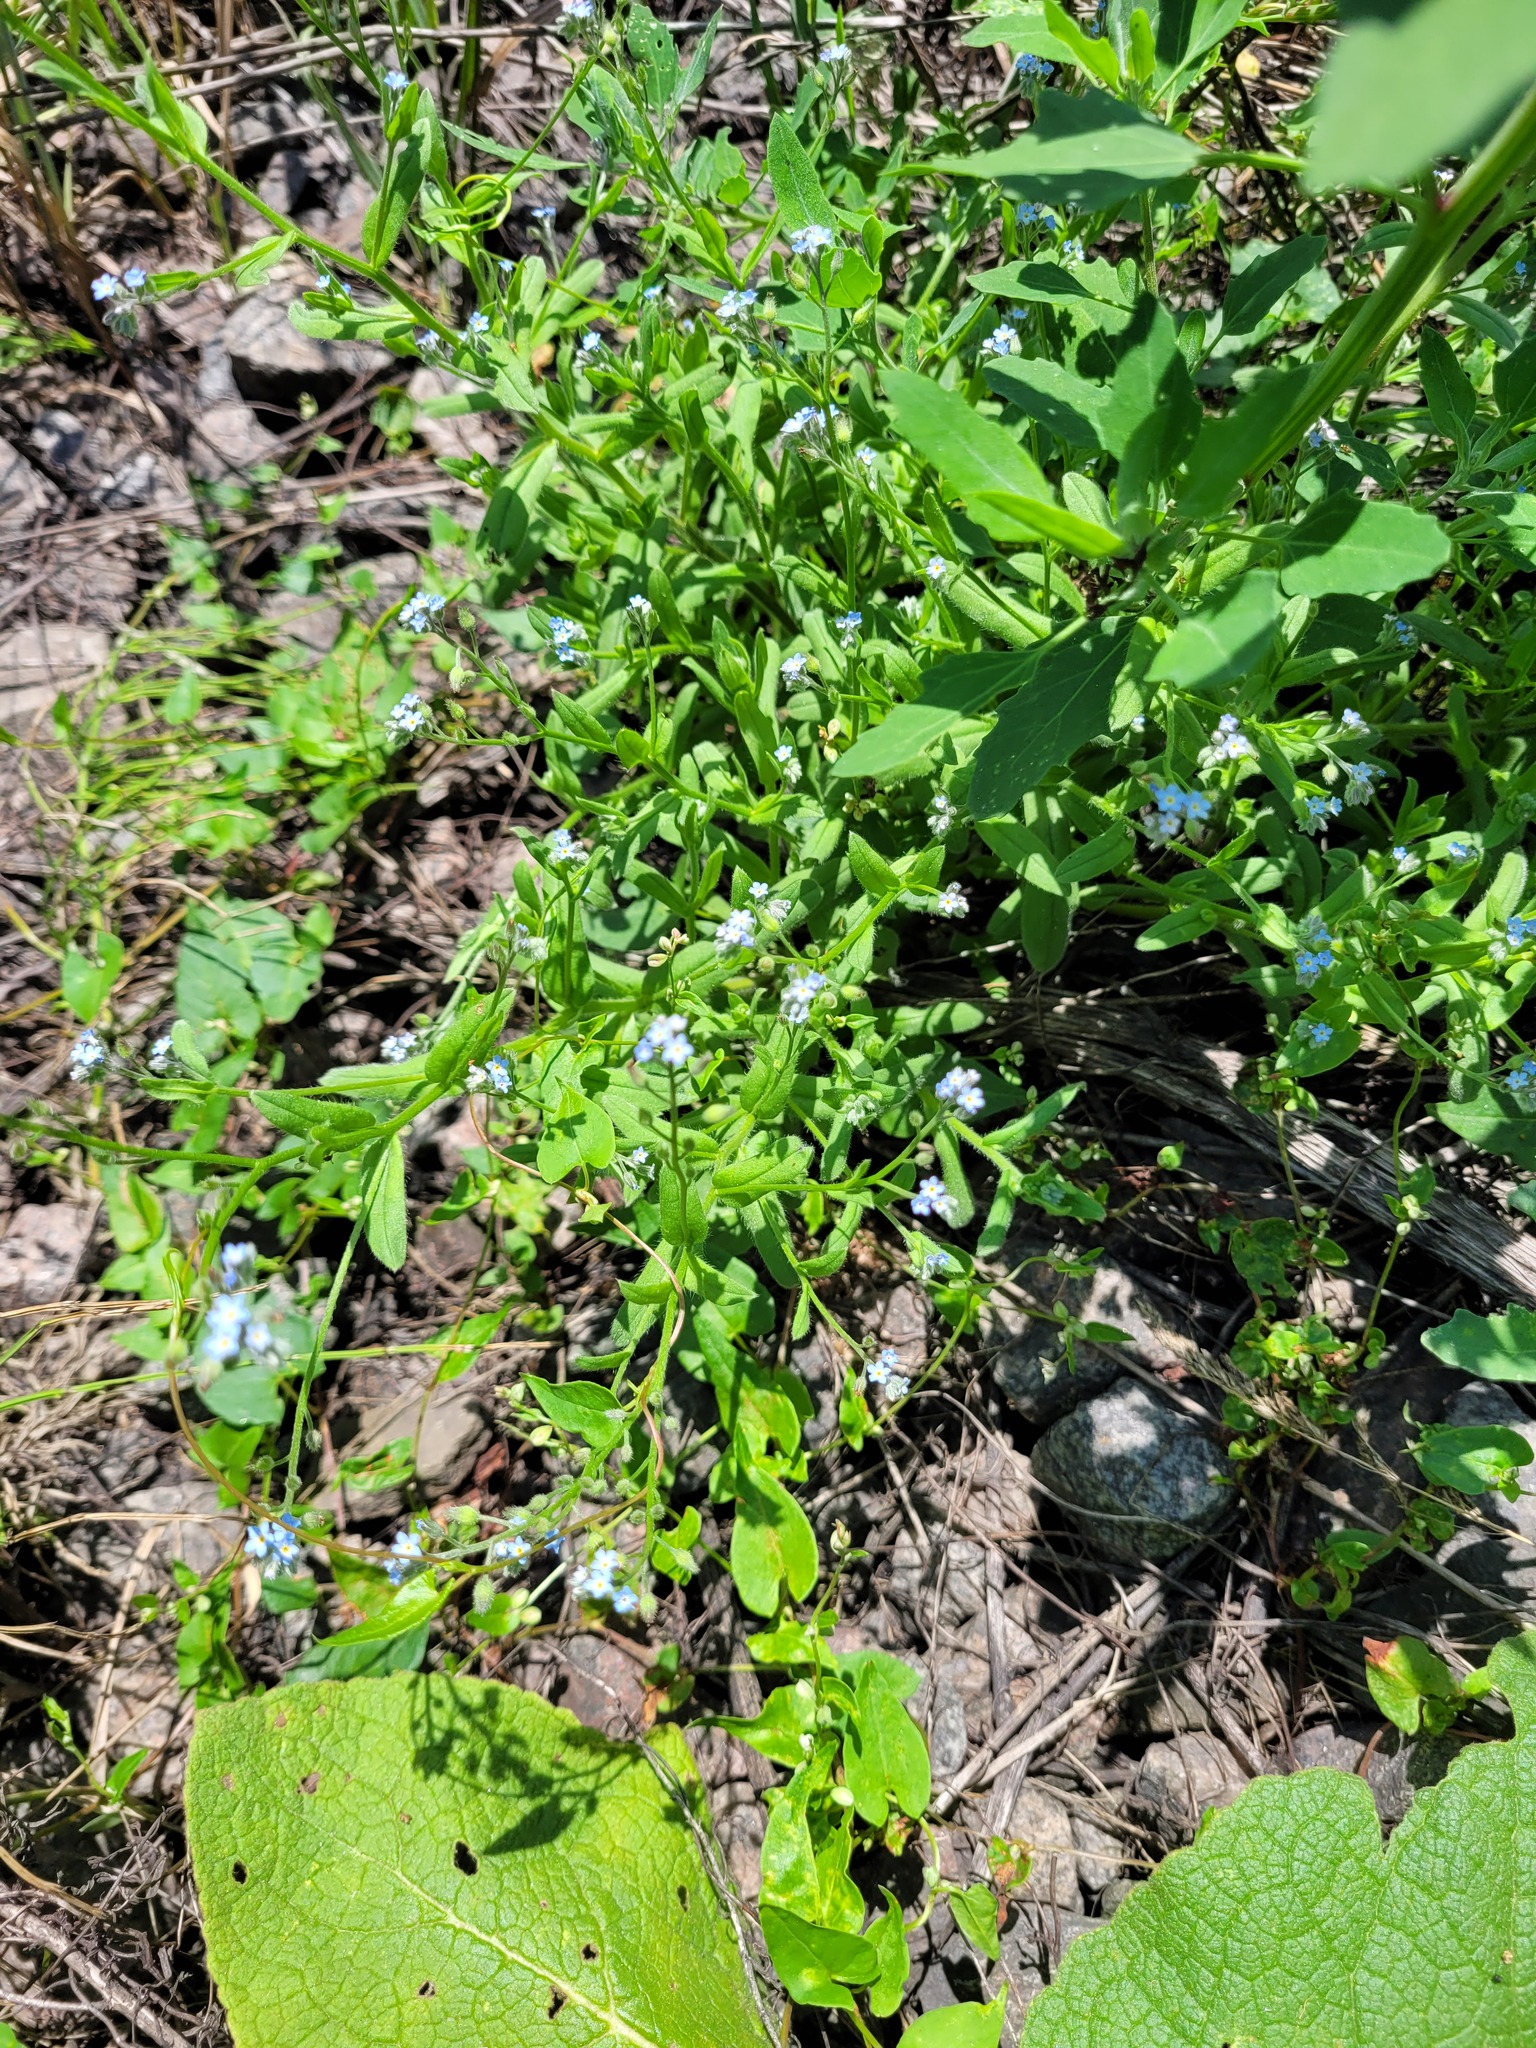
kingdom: Plantae
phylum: Tracheophyta
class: Magnoliopsida
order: Boraginales
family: Boraginaceae
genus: Myosotis
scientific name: Myosotis arvensis
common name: Field forget-me-not
